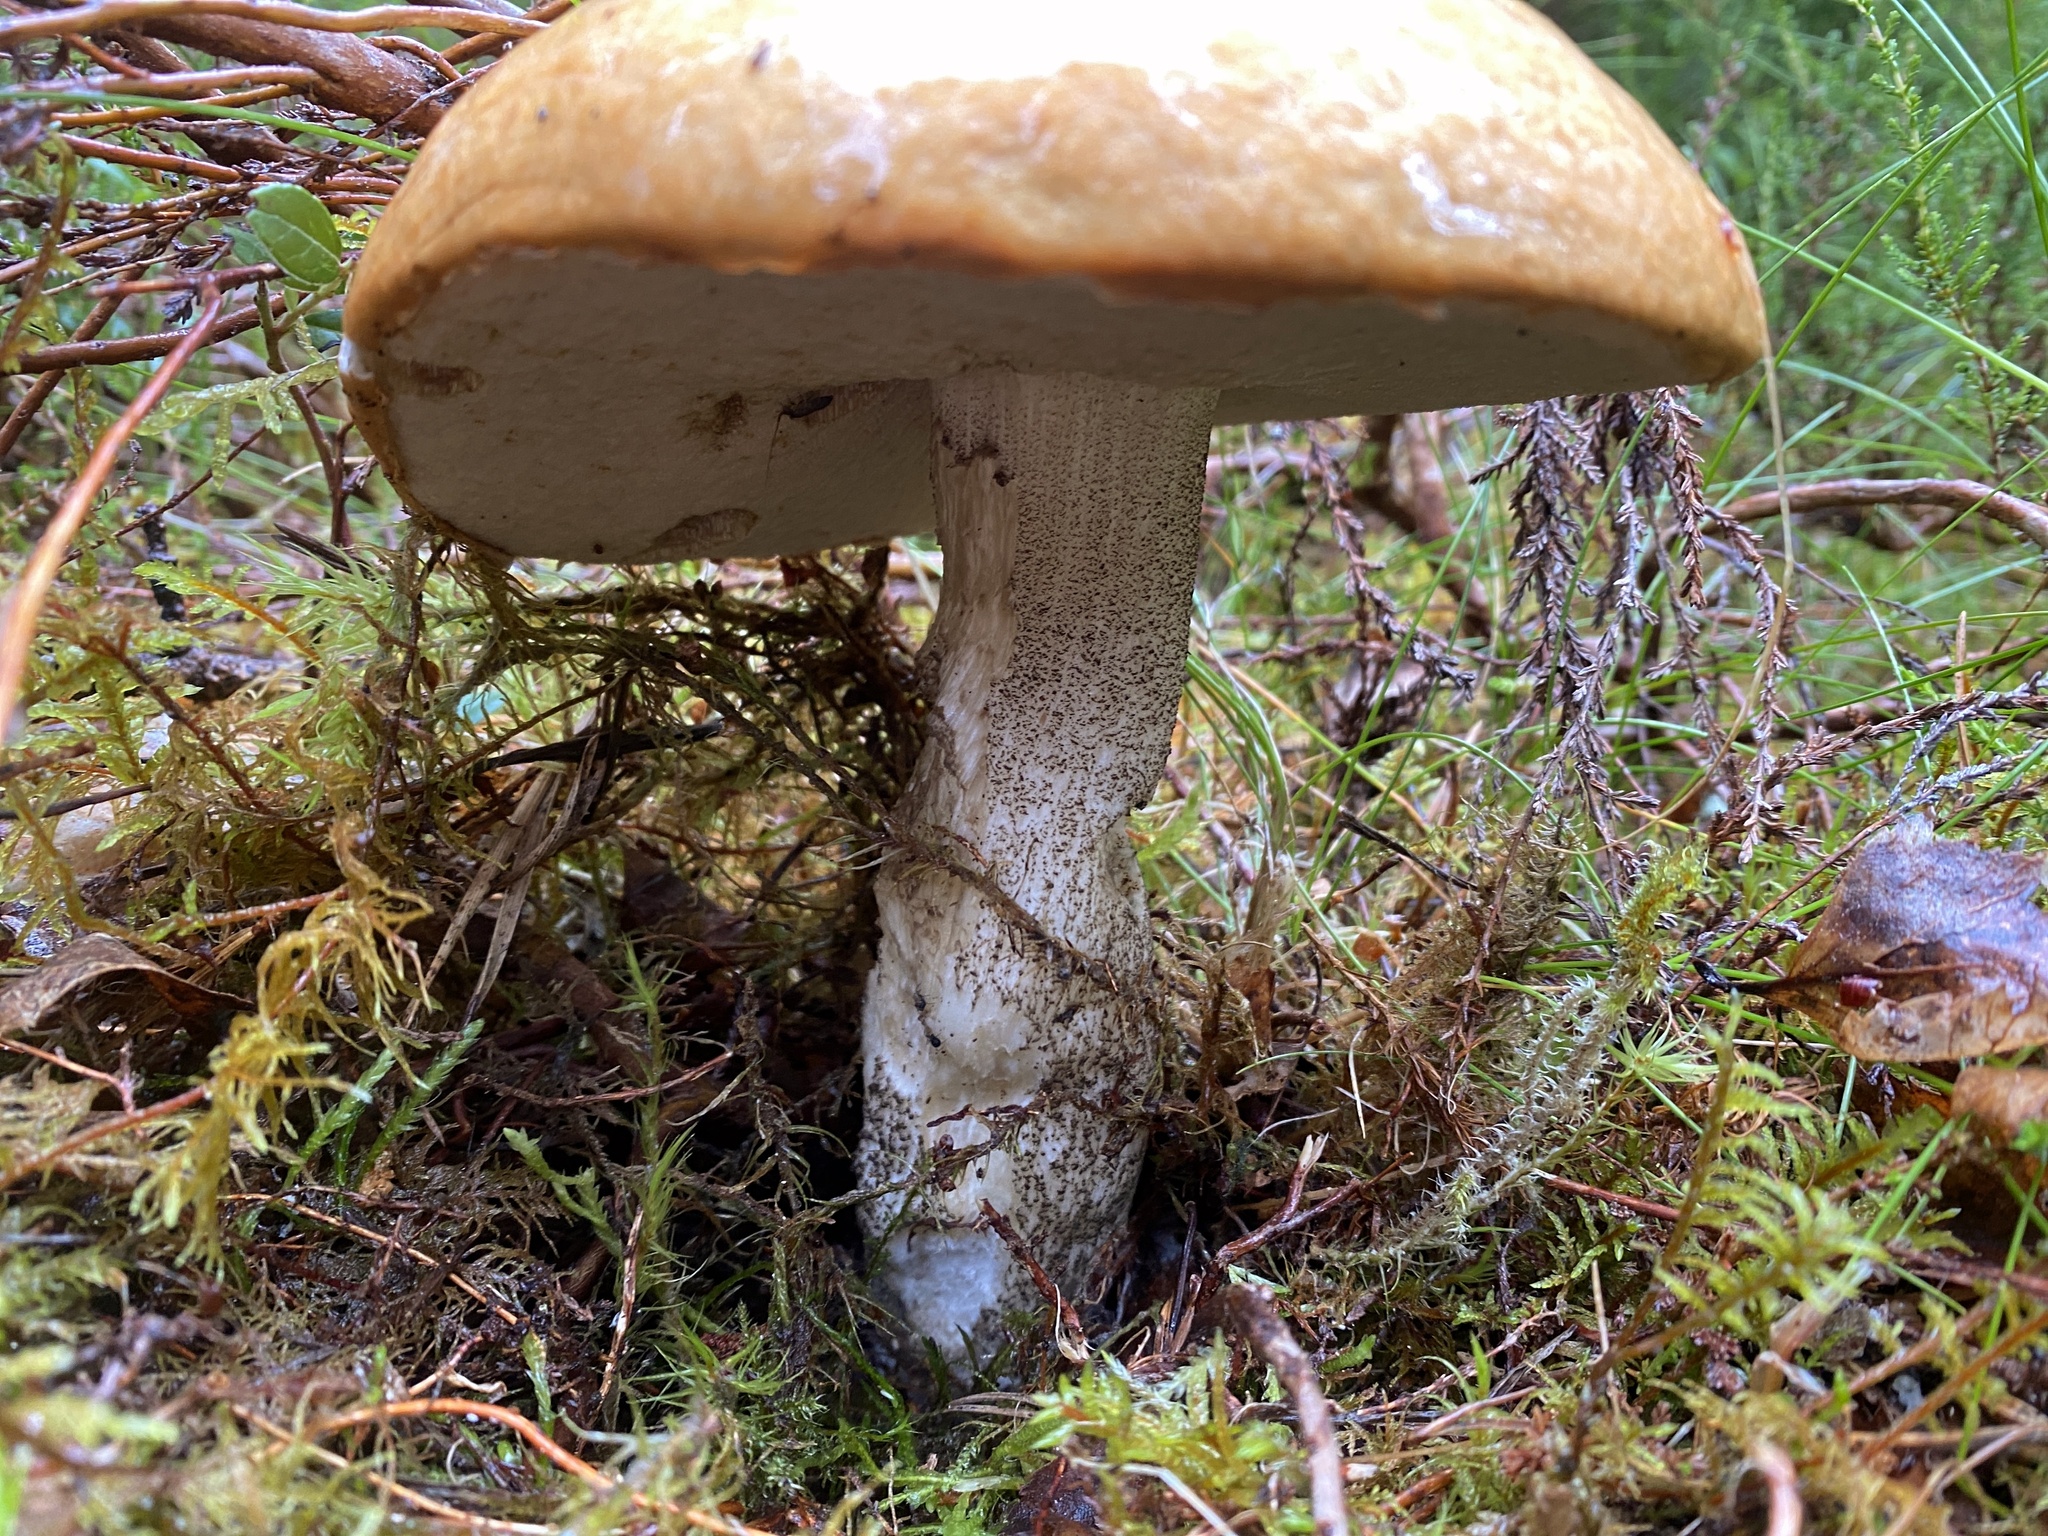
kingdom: Fungi
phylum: Basidiomycota
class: Agaricomycetes
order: Boletales
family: Boletaceae
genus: Leccinum
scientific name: Leccinum versipelle
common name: Orange birch bolete
